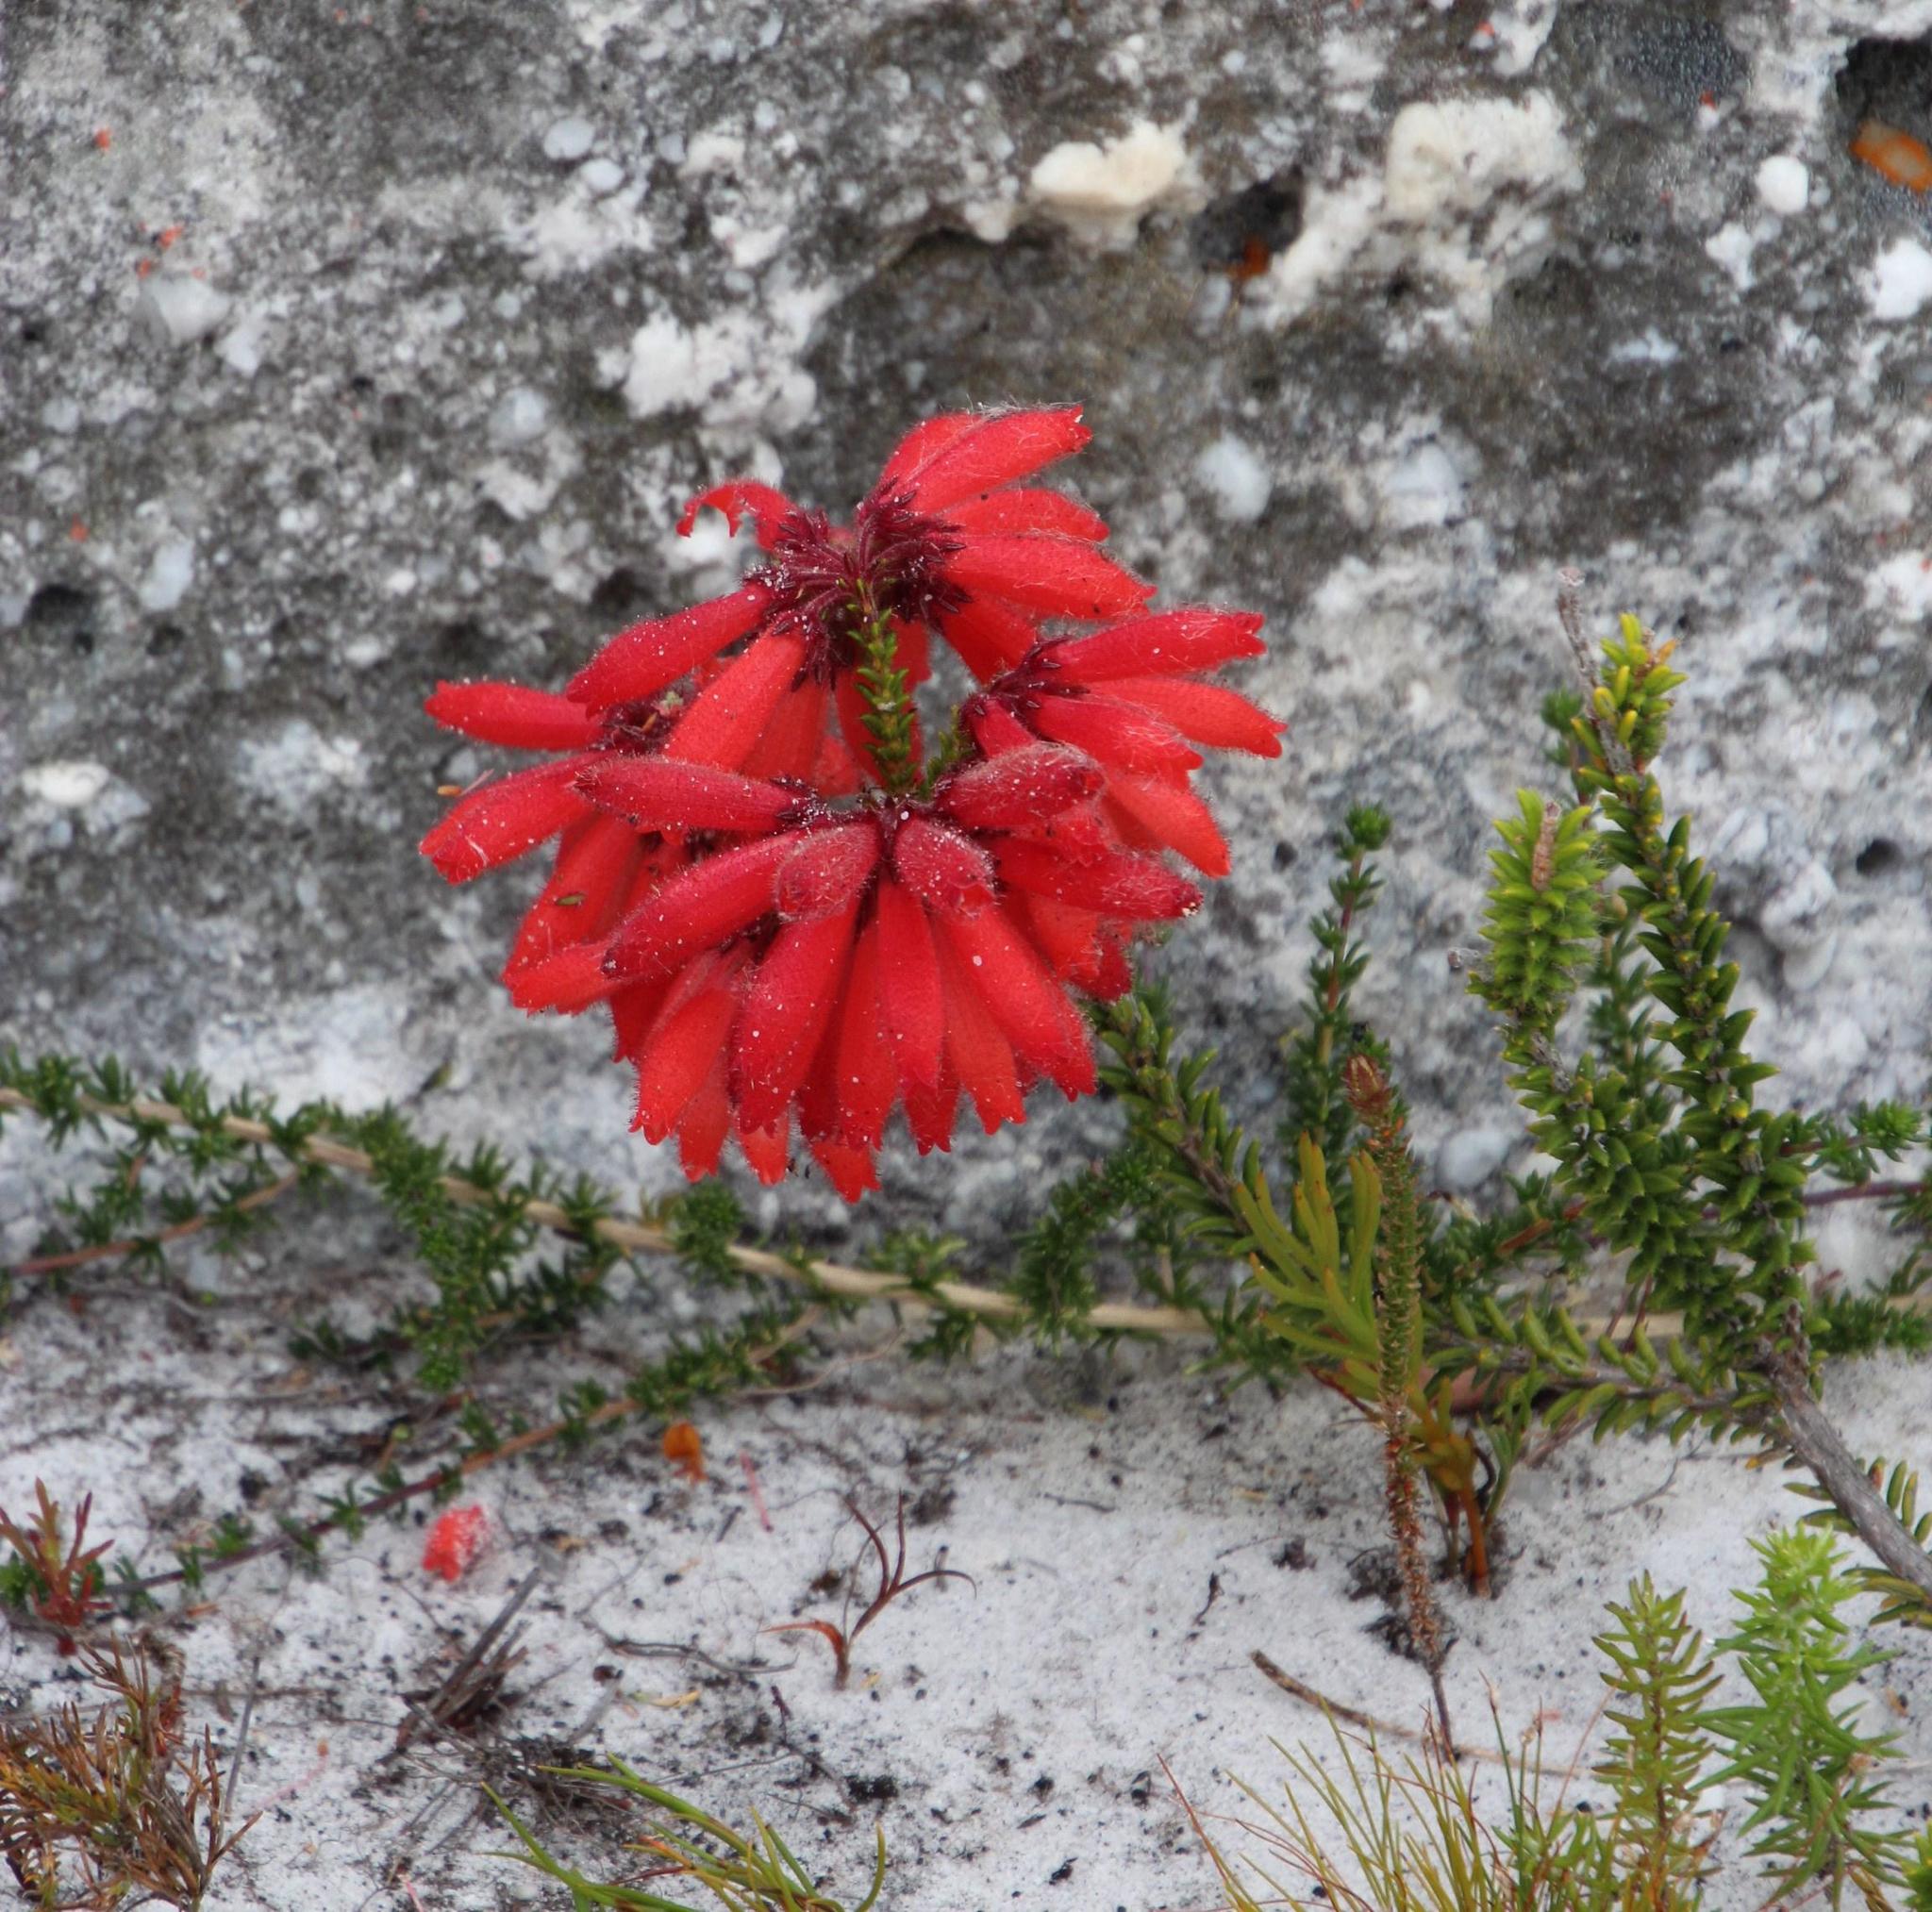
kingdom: Plantae
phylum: Tracheophyta
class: Magnoliopsida
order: Ericales
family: Ericaceae
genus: Erica
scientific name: Erica cerinthoides
